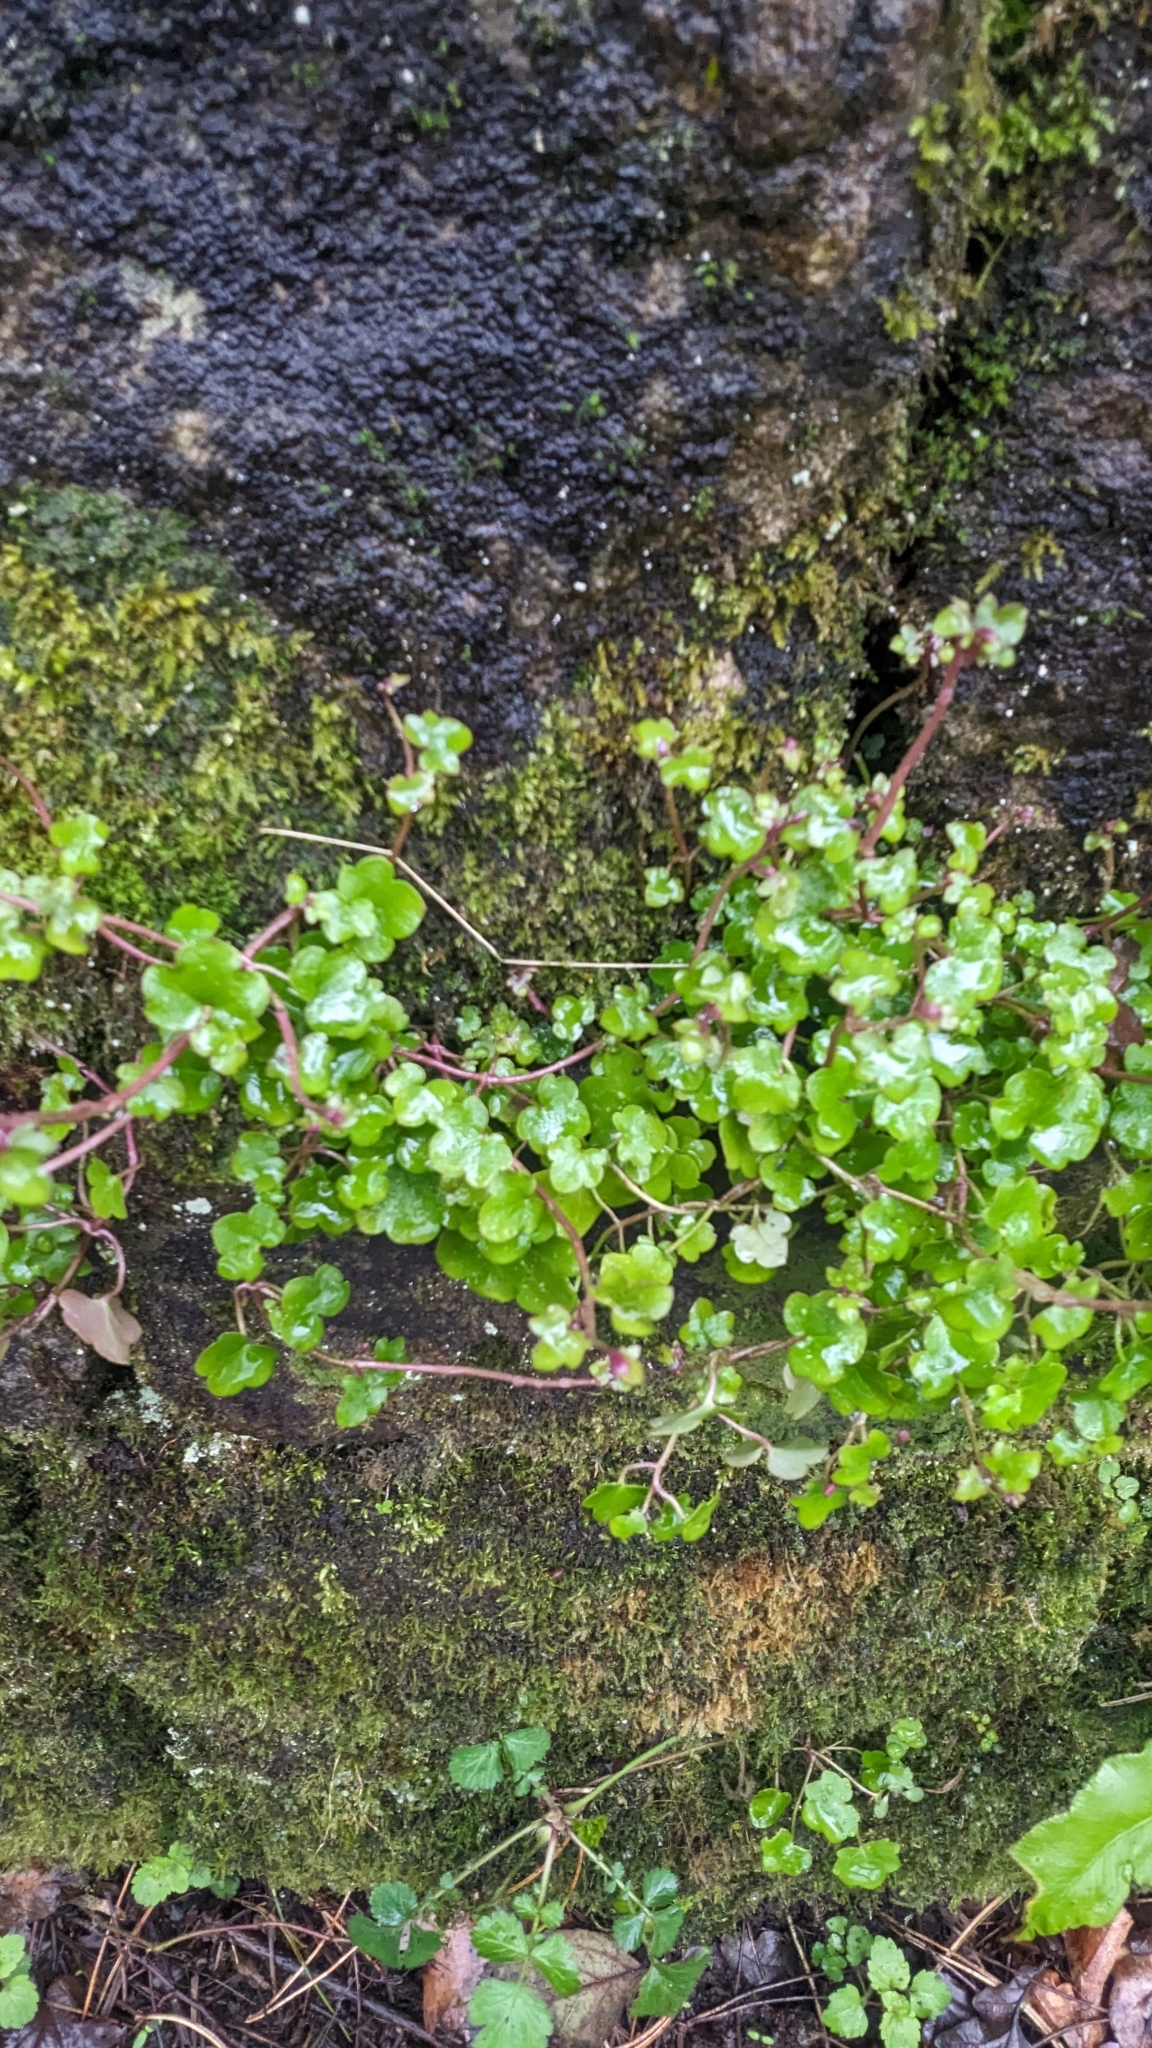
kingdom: Plantae
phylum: Tracheophyta
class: Magnoliopsida
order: Lamiales
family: Plantaginaceae
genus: Cymbalaria
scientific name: Cymbalaria muralis
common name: Ivy-leaved toadflax
